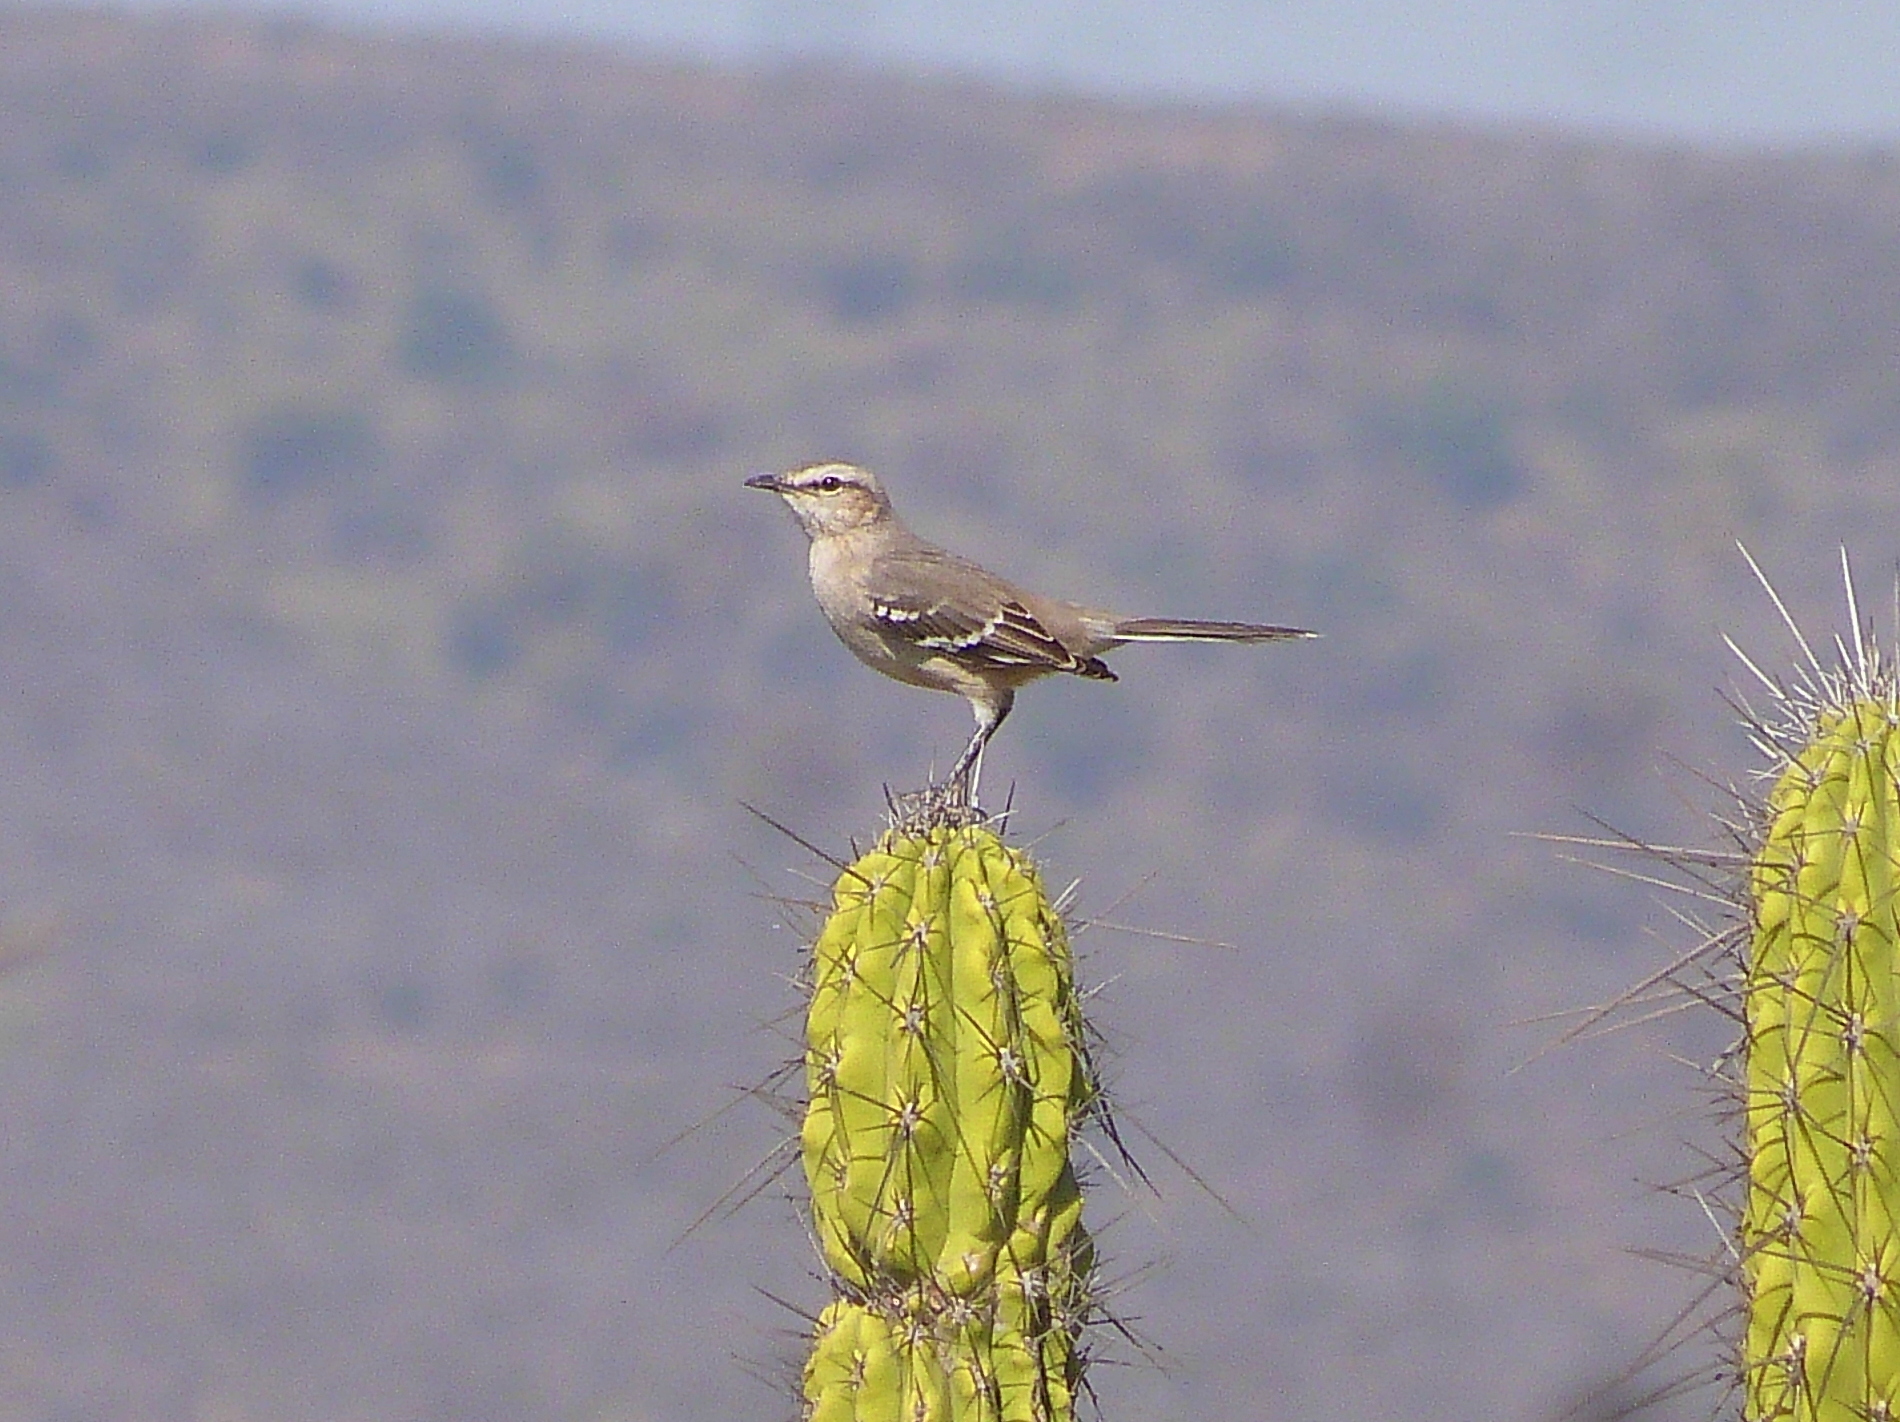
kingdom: Animalia
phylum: Chordata
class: Aves
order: Passeriformes
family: Mimidae
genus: Mimus
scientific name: Mimus saturninus
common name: Chalk-browed mockingbird
